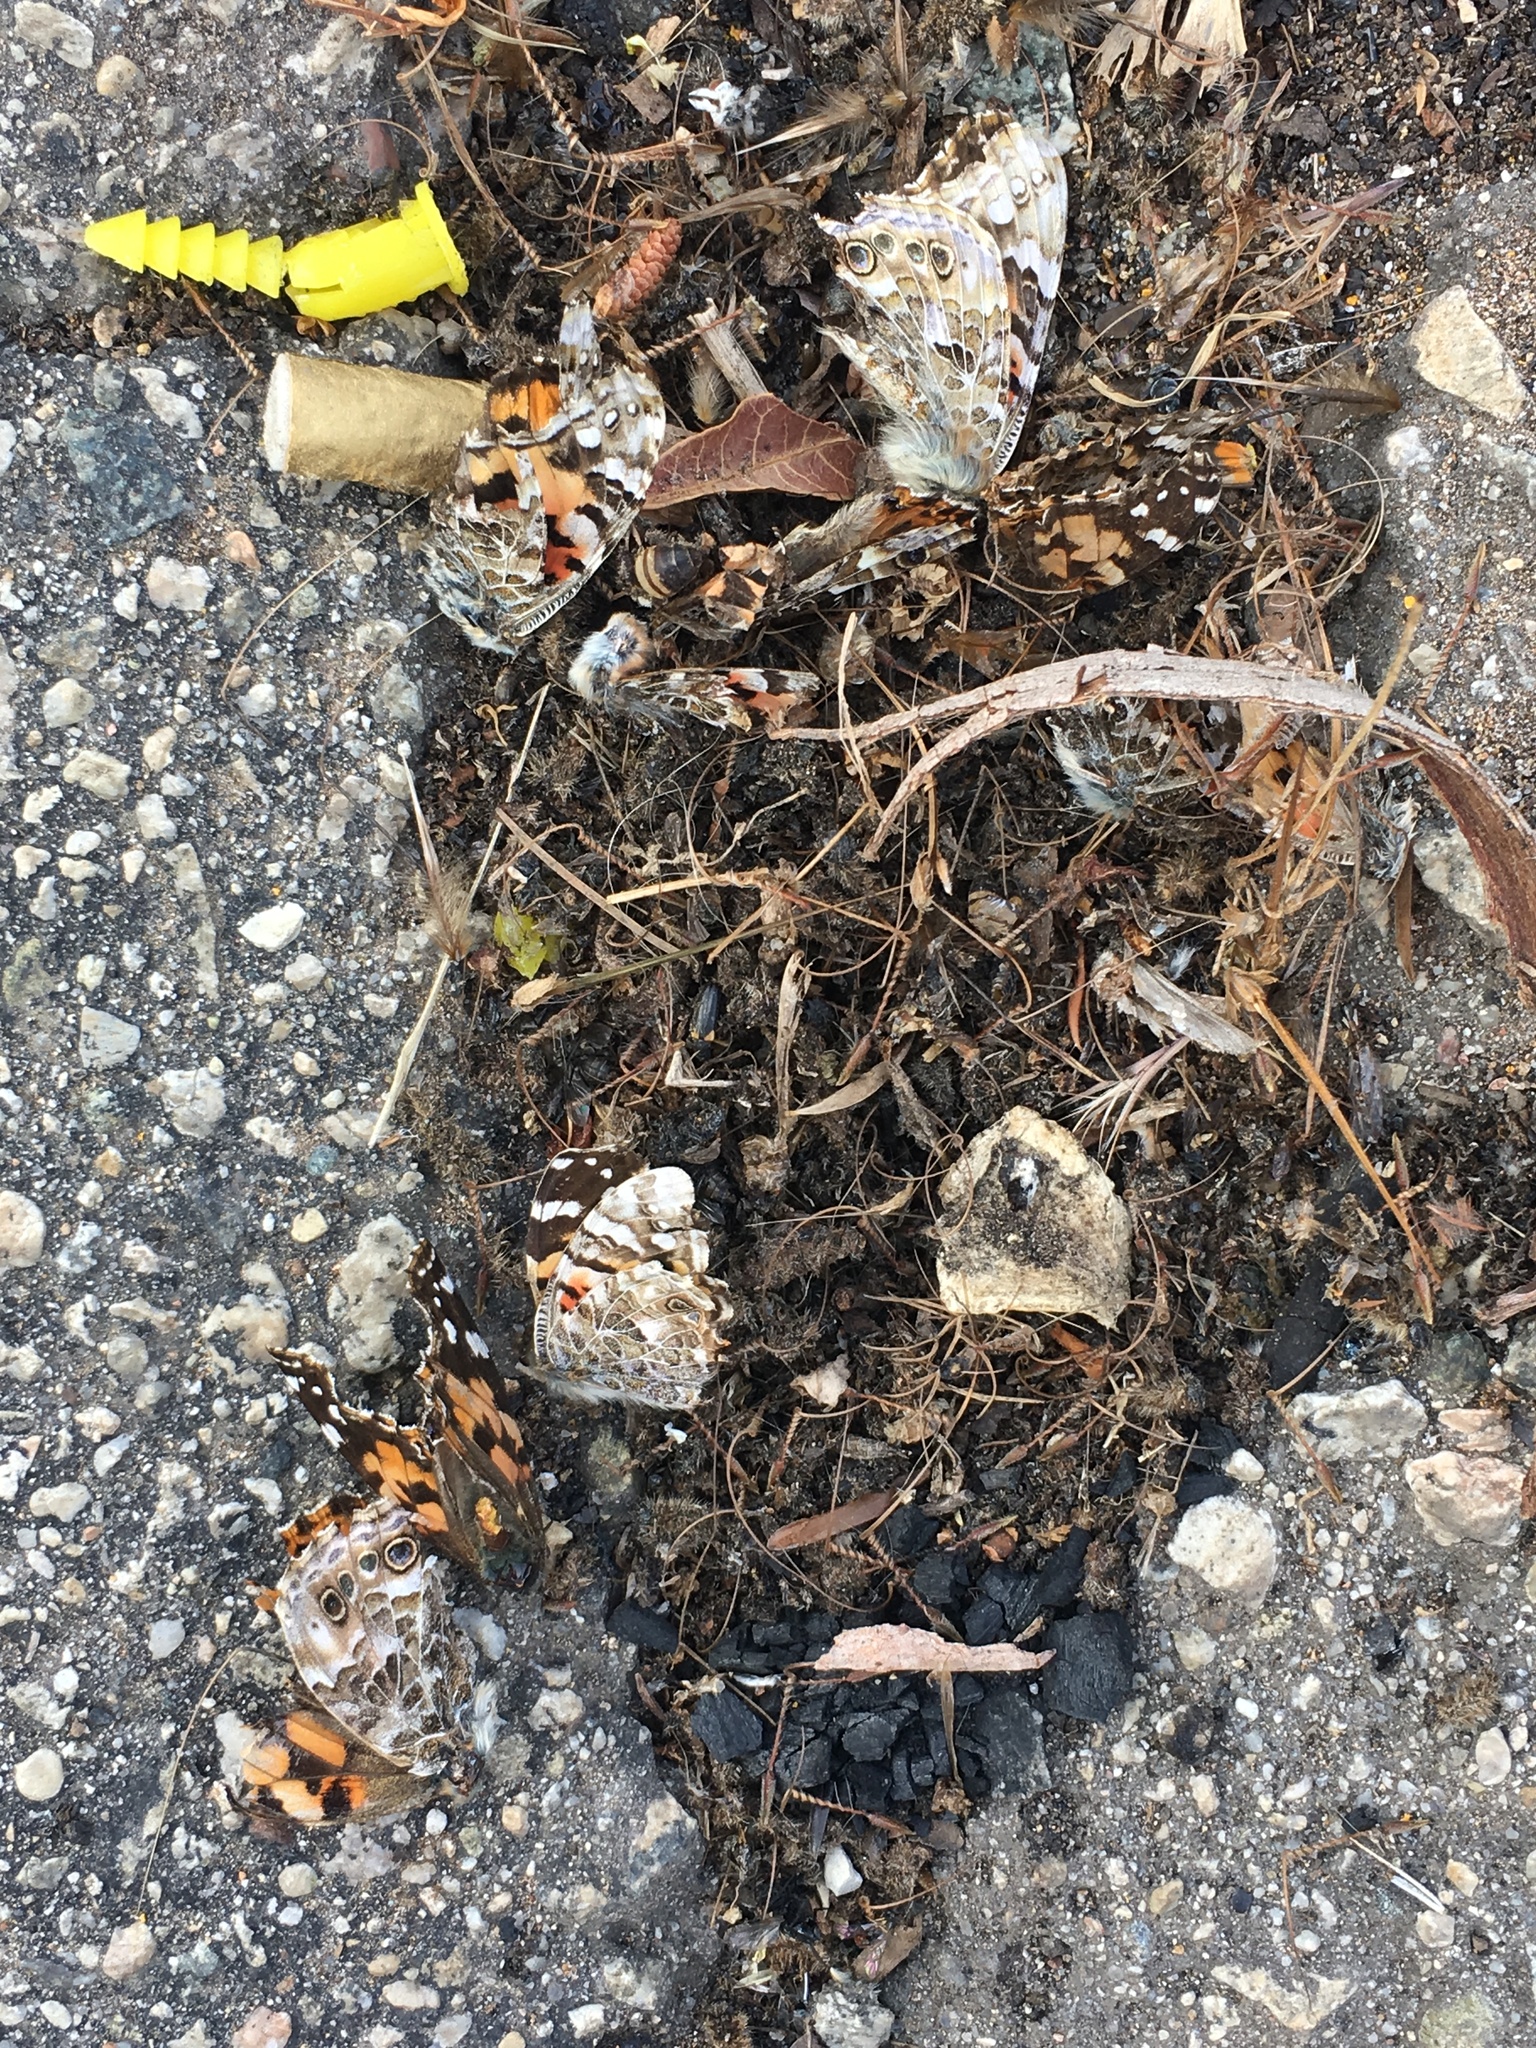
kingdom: Animalia
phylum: Arthropoda
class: Insecta
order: Lepidoptera
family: Nymphalidae
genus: Vanessa
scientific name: Vanessa cardui
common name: Painted lady
